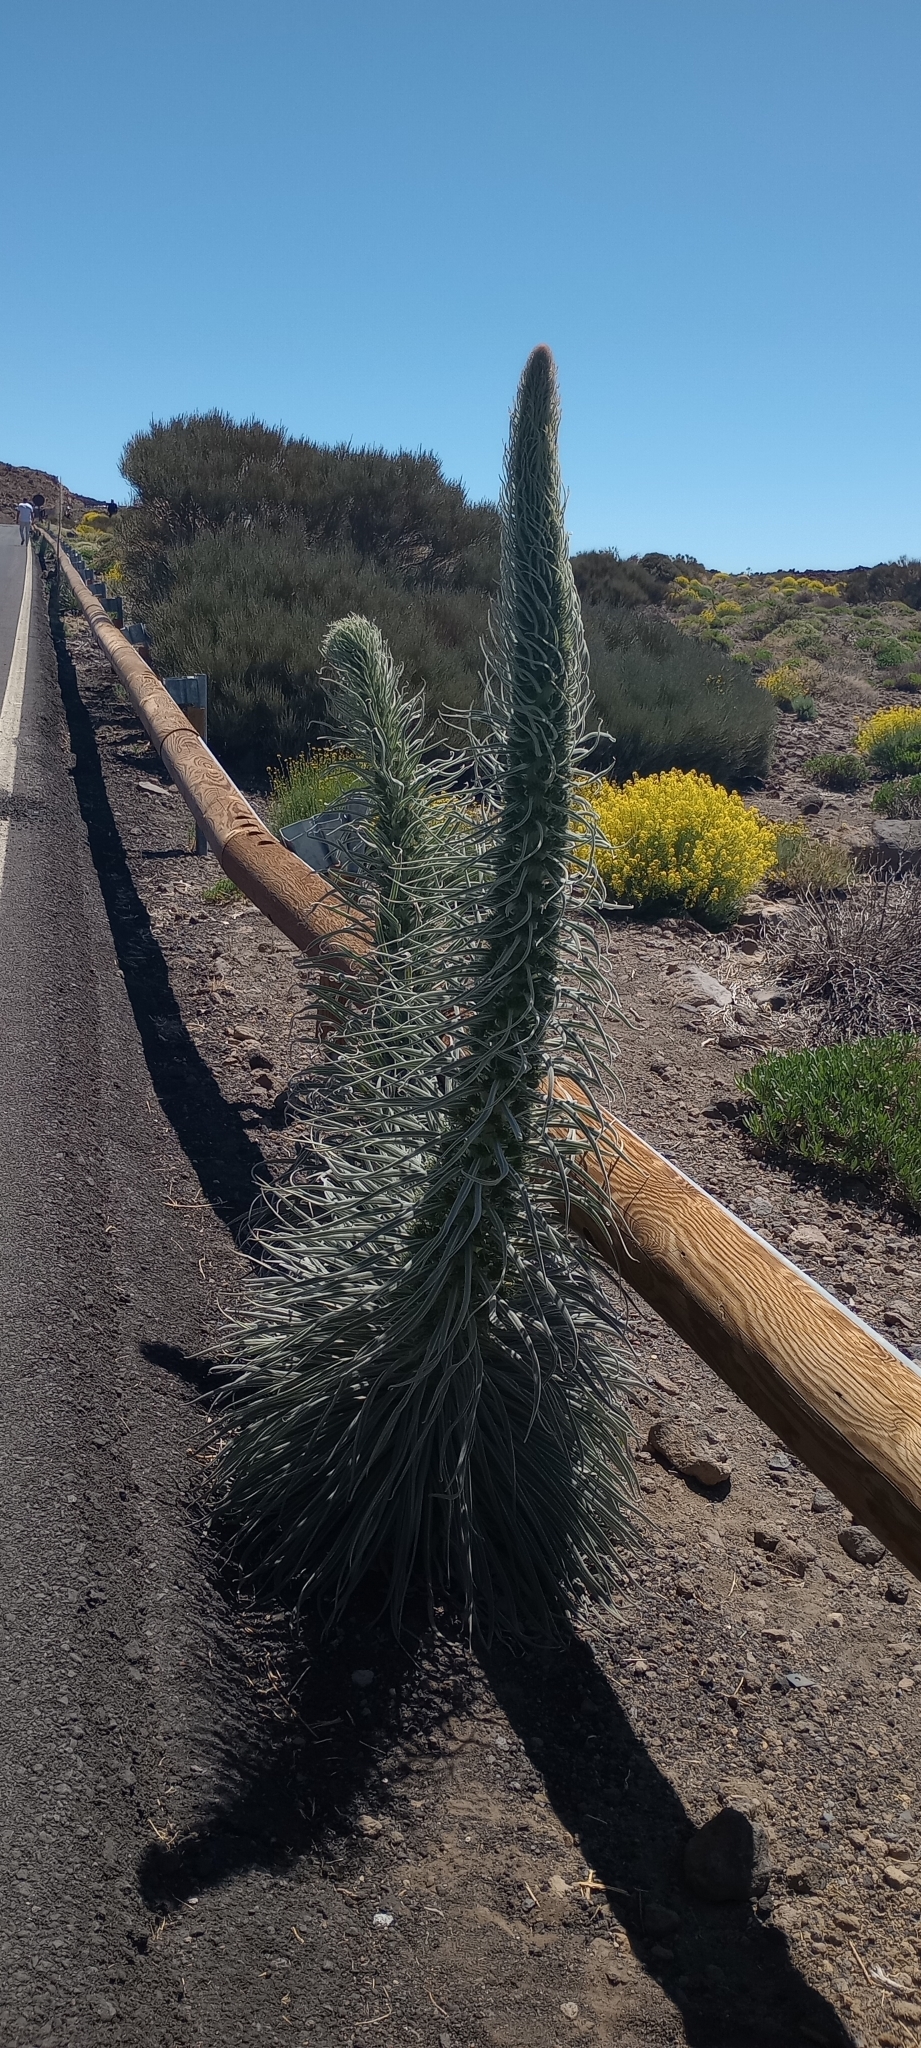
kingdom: Plantae
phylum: Tracheophyta
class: Magnoliopsida
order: Boraginales
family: Boraginaceae
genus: Echium
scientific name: Echium wildpretii
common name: Tower-of-jewels
